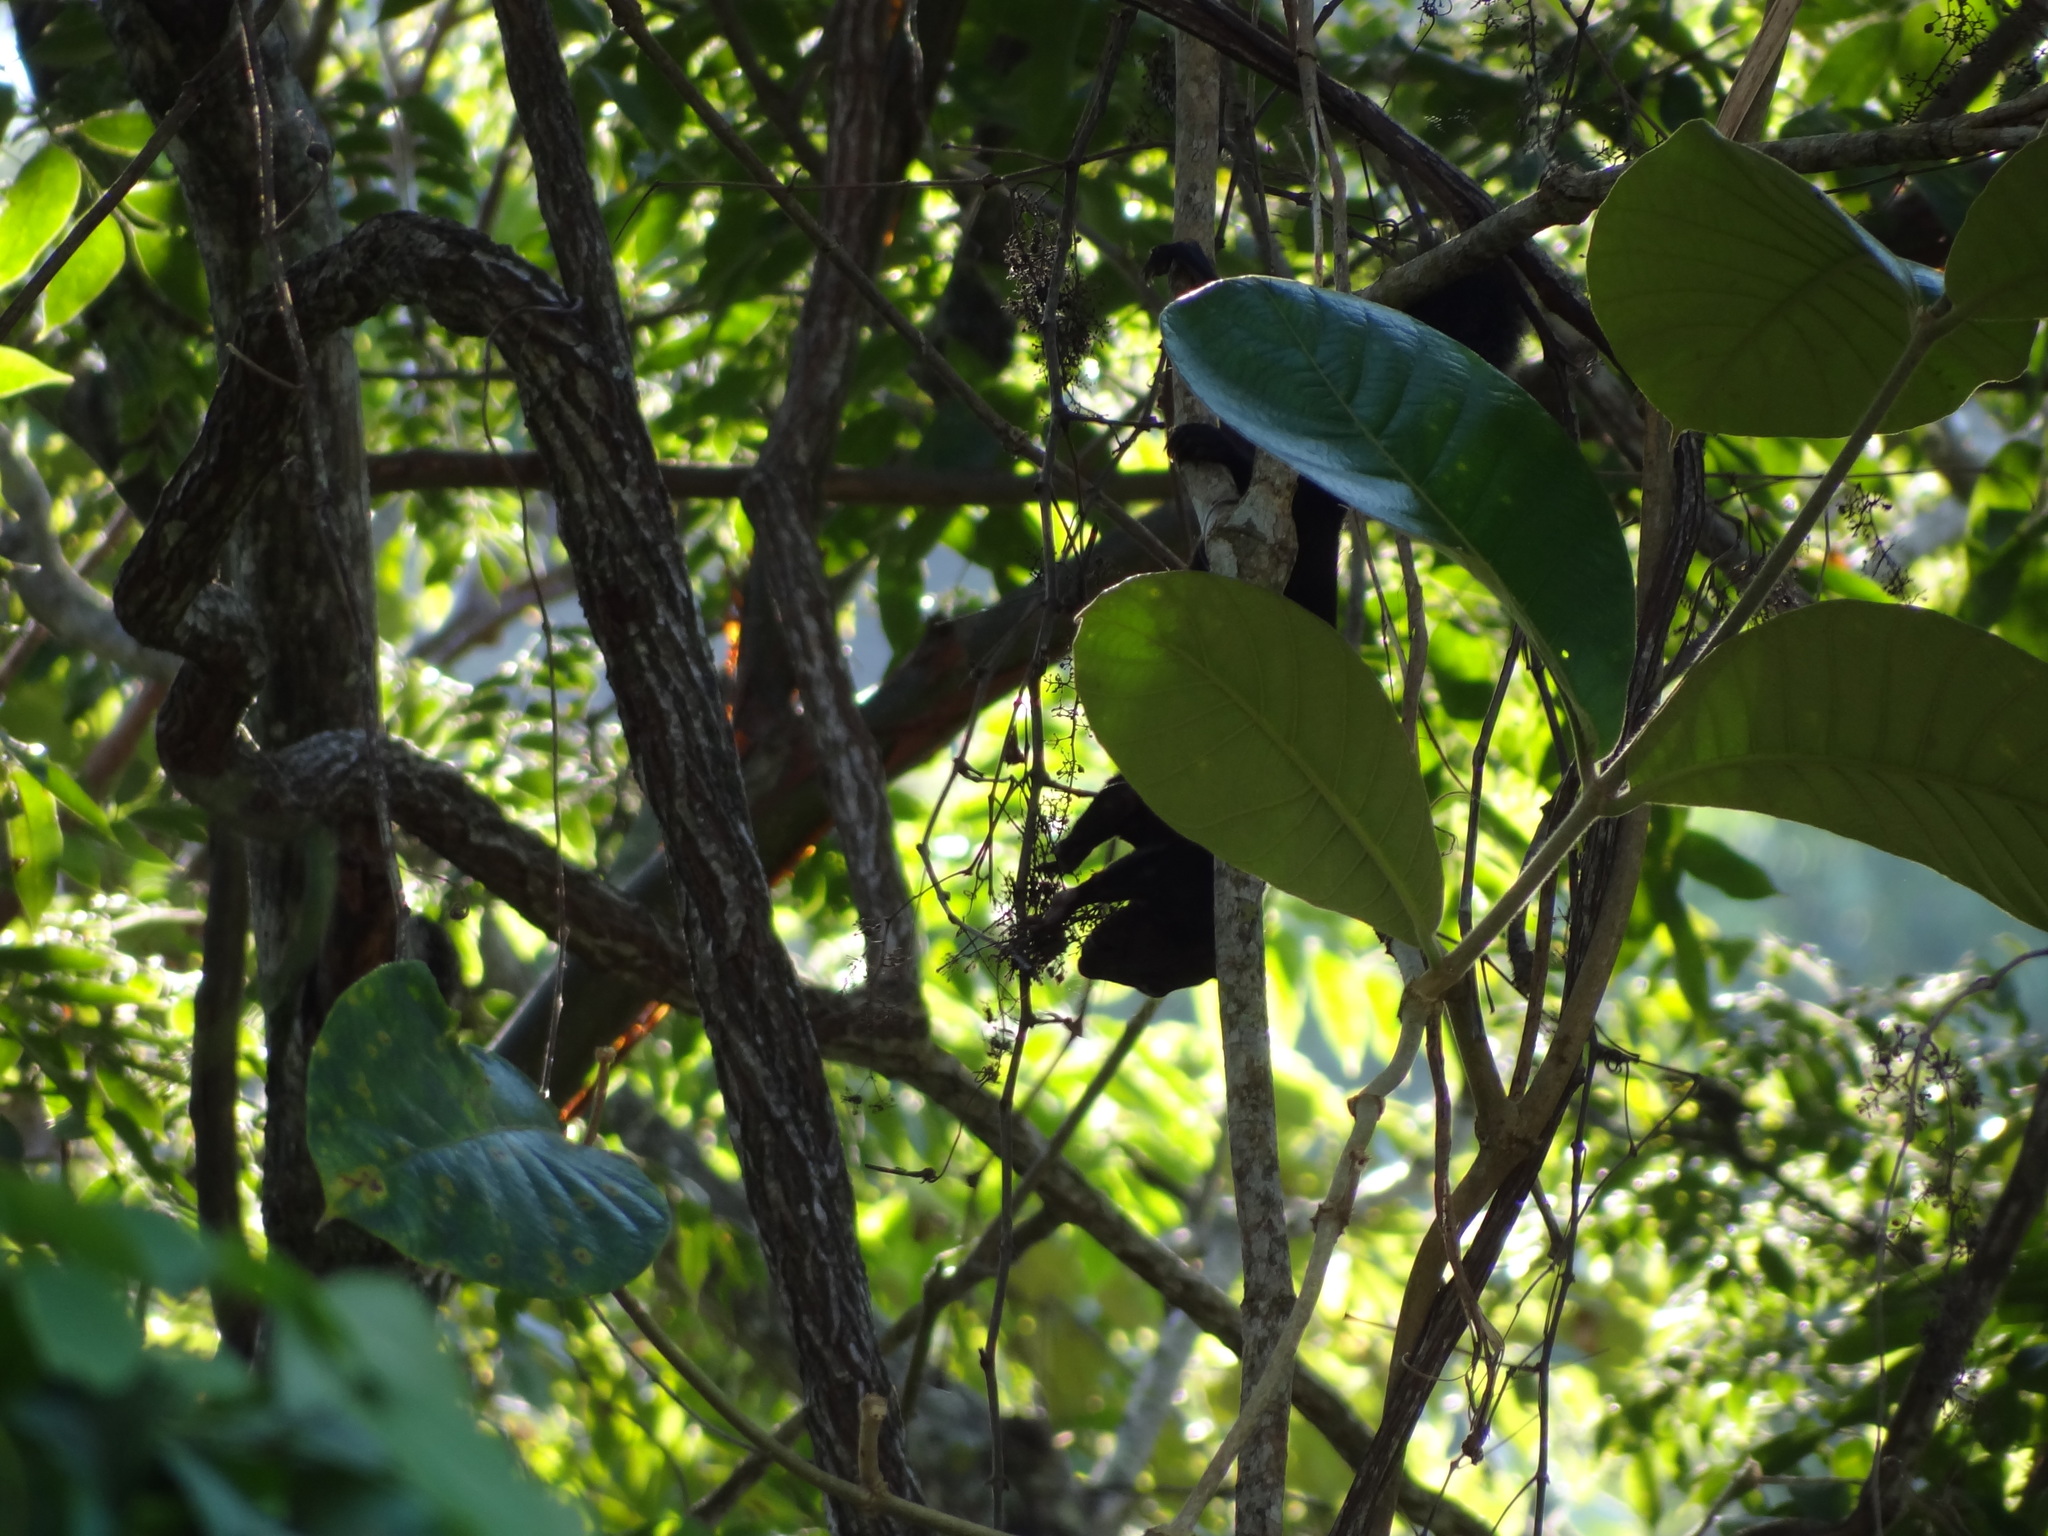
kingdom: Animalia
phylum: Chordata
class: Mammalia
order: Rodentia
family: Sciuridae
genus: Sciurus
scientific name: Sciurus aureogaster
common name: Red-bellied squirrel
